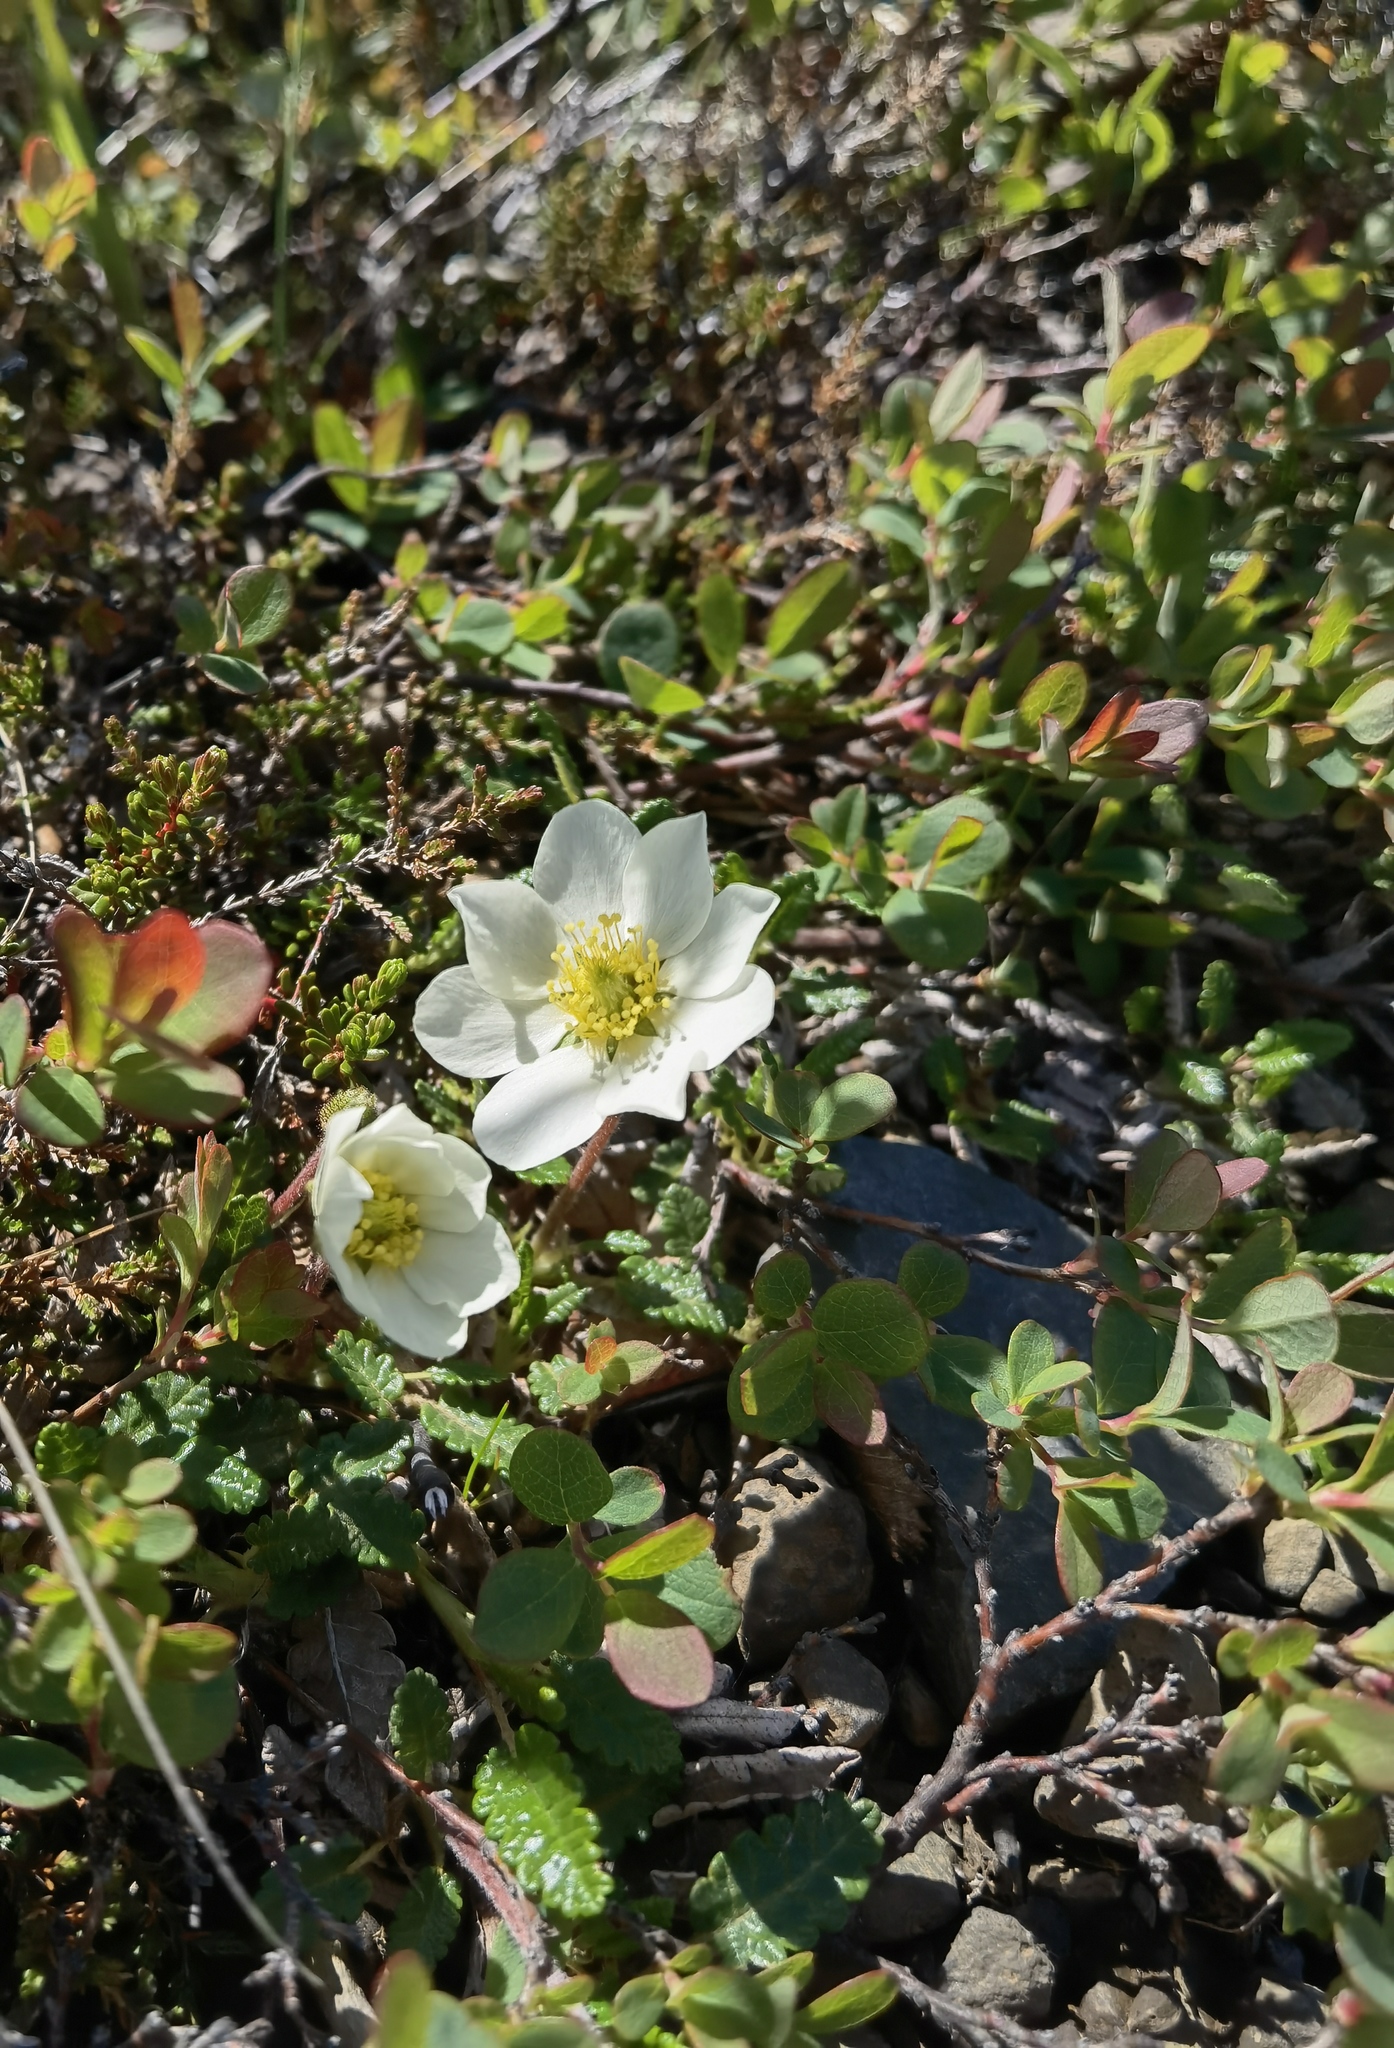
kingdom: Plantae
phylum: Tracheophyta
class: Magnoliopsida
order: Rosales
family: Rosaceae
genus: Dryas
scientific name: Dryas octopetala
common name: Eight-petal mountain-avens
